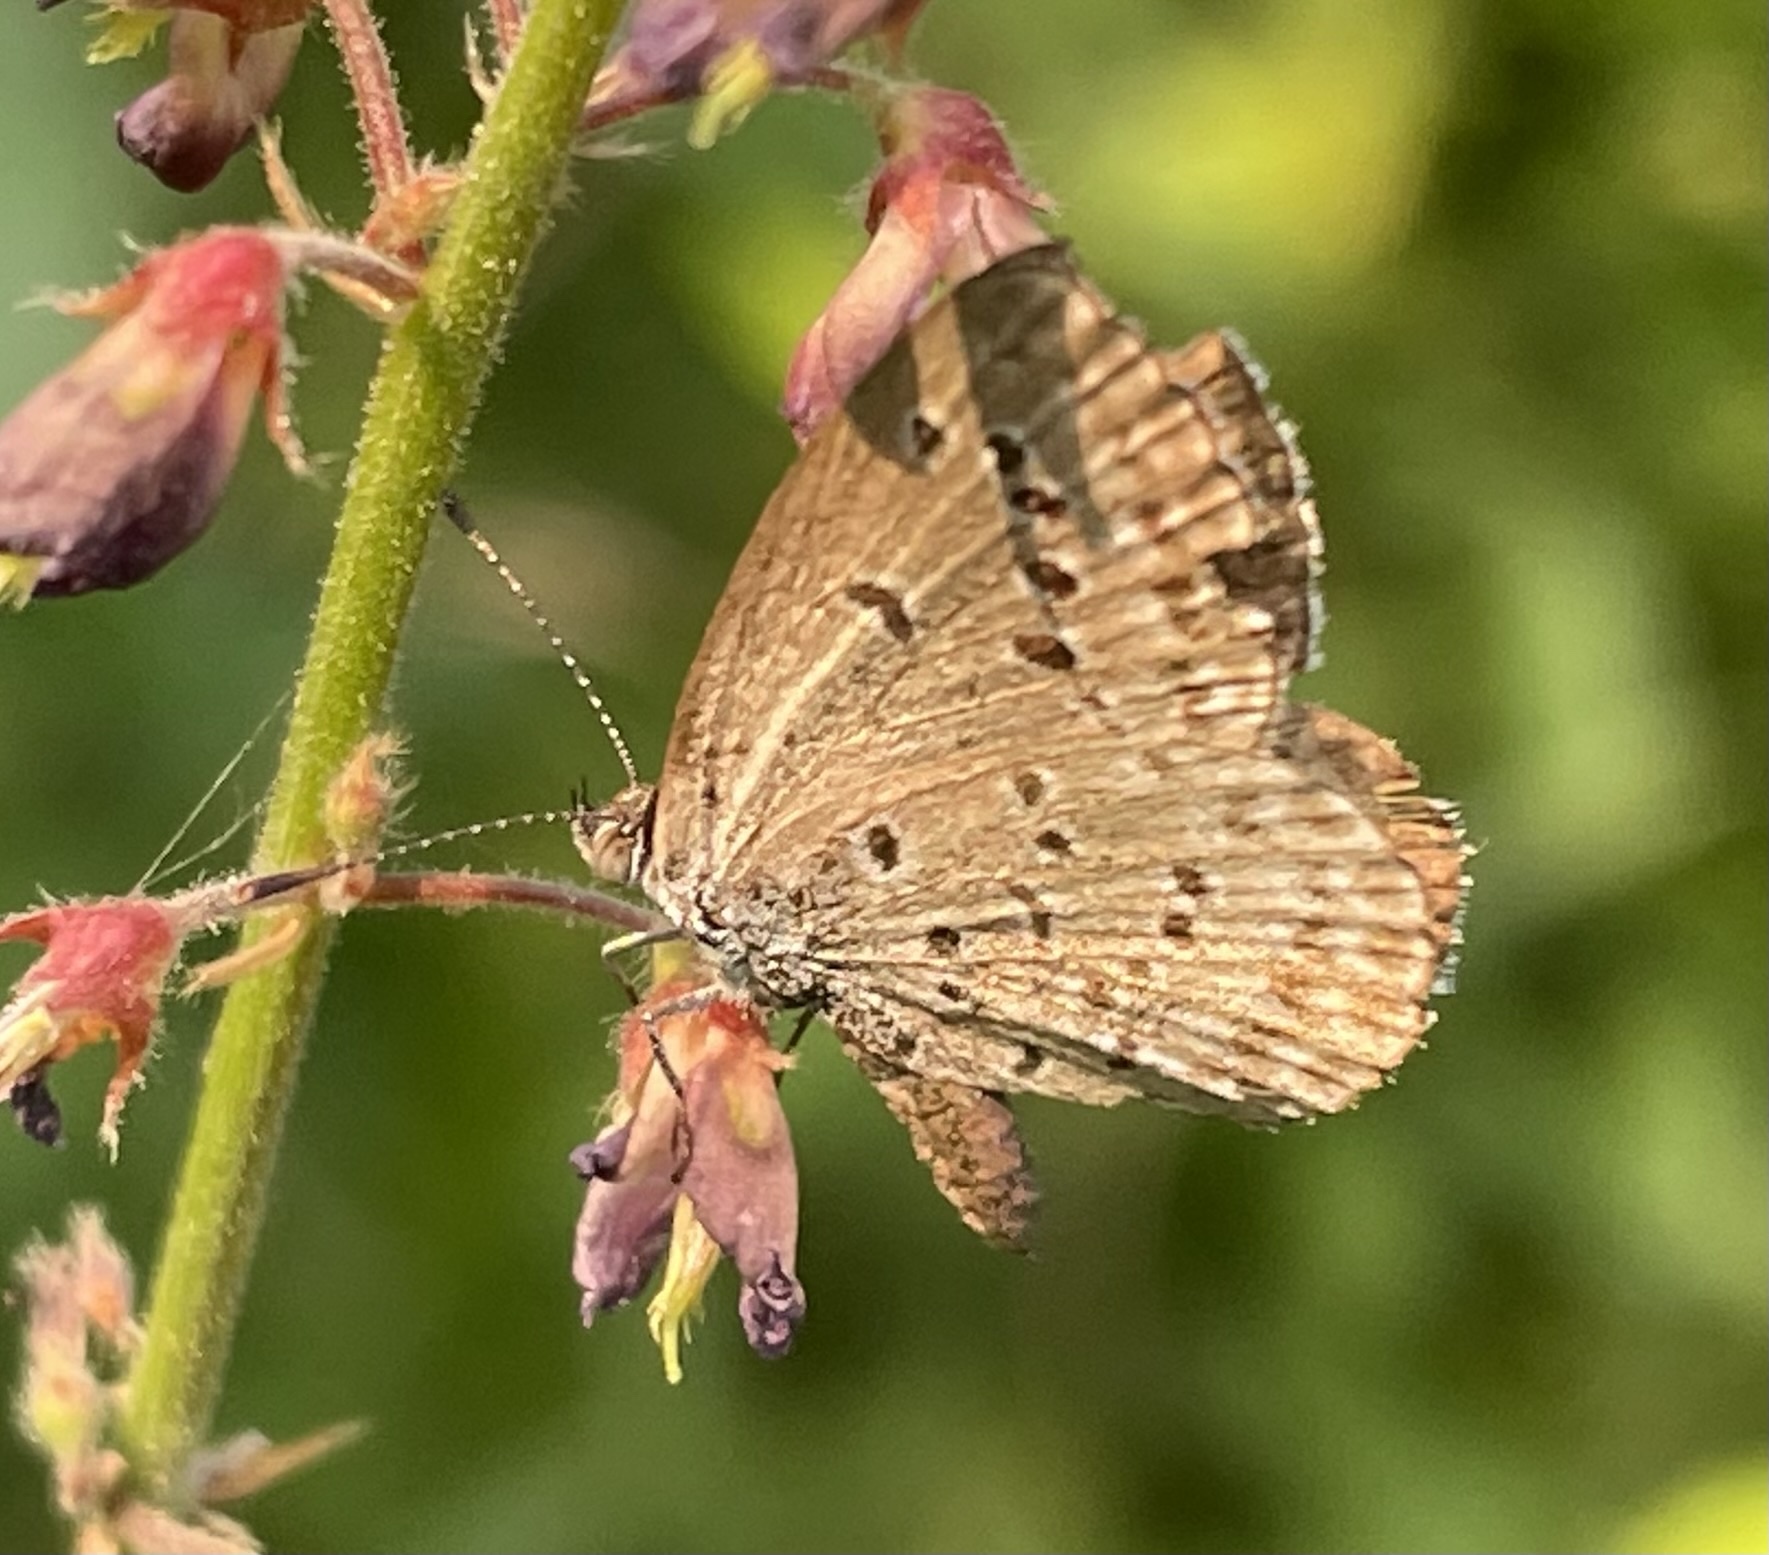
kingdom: Animalia
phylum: Arthropoda
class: Insecta
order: Lepidoptera
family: Lycaenidae
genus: Zizina
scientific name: Zizina otis
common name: Lesser grass blue
